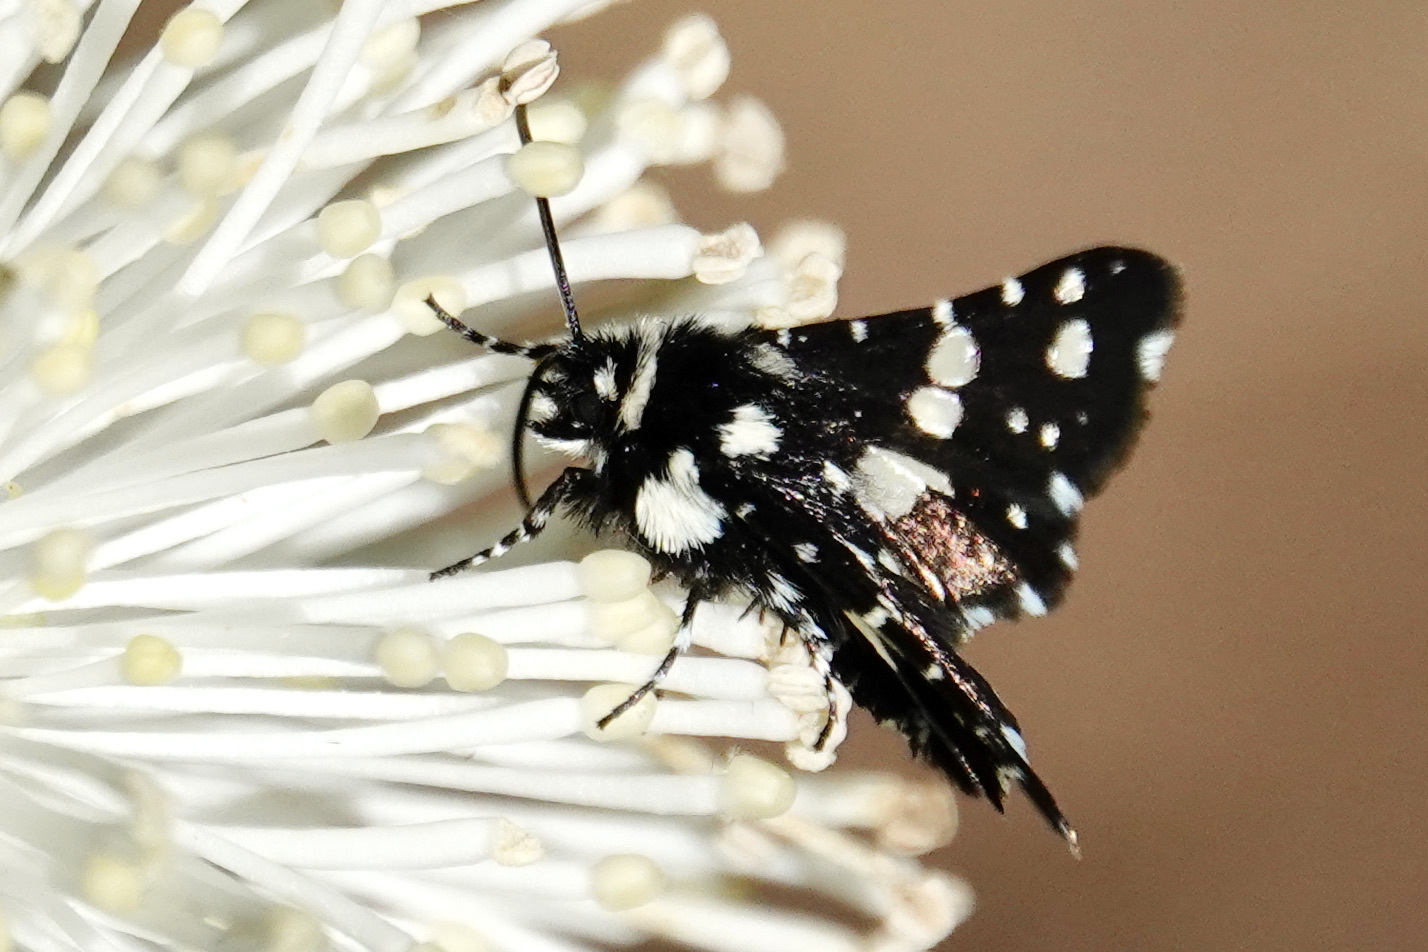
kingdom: Animalia
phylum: Arthropoda
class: Insecta
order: Lepidoptera
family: Thyrididae
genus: Pseudothyris
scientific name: Pseudothyris sepulchralis
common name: Mournful thyris moth
